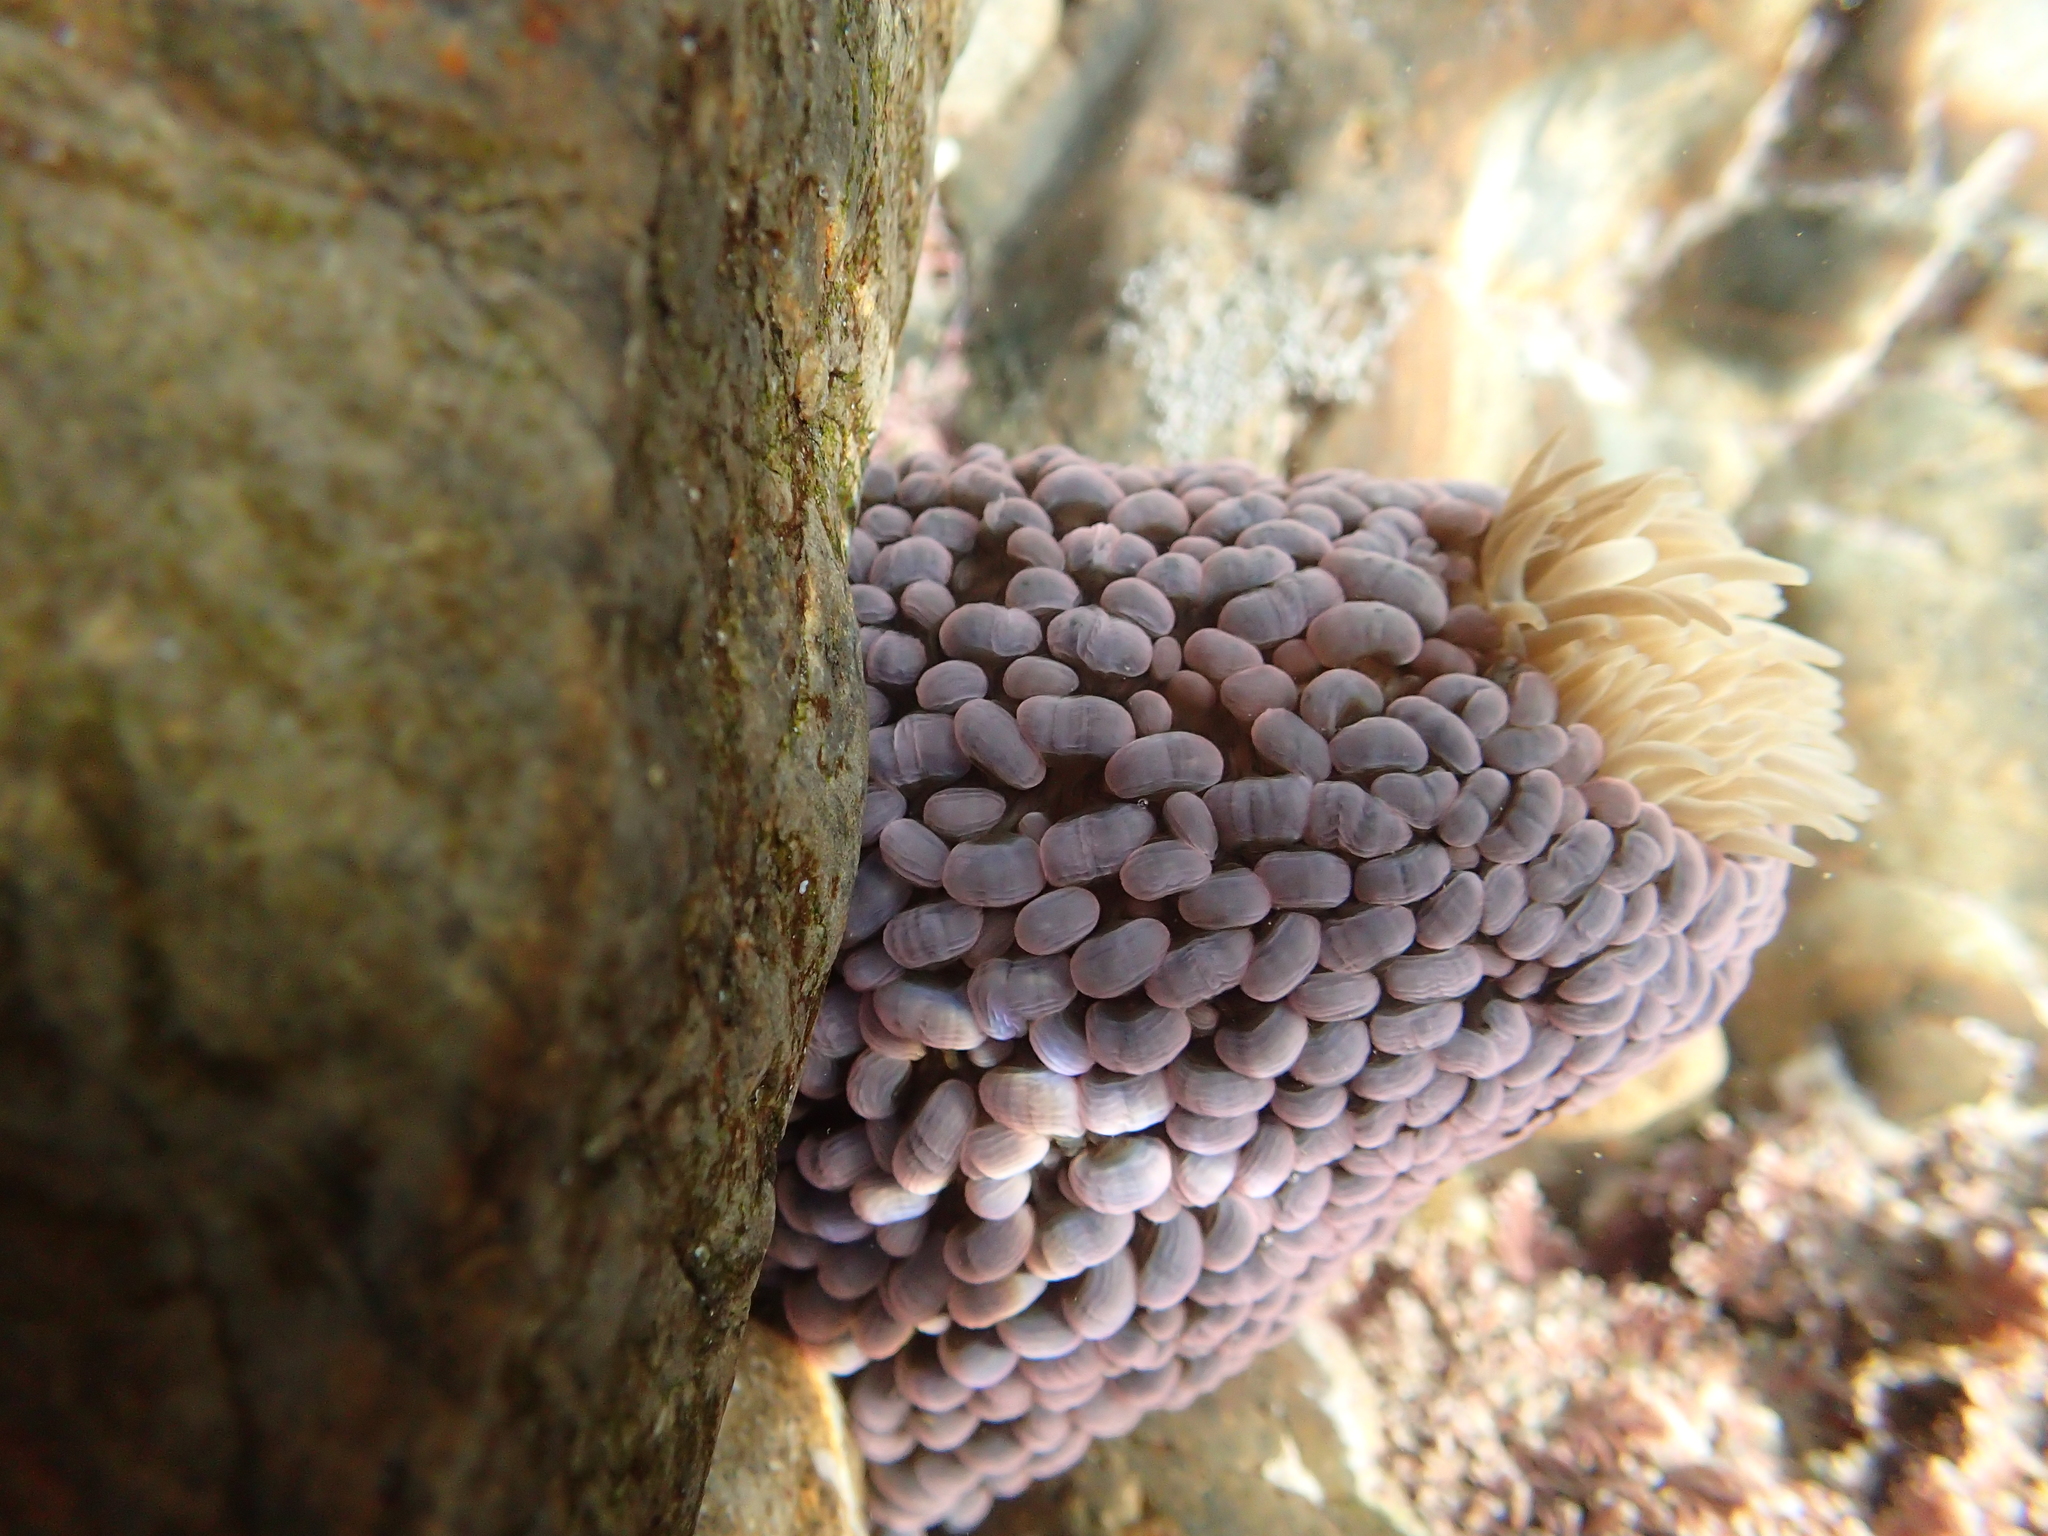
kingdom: Animalia
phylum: Cnidaria
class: Anthozoa
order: Actiniaria
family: Actiniidae
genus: Phlyctenactis
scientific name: Phlyctenactis tuberculosa
